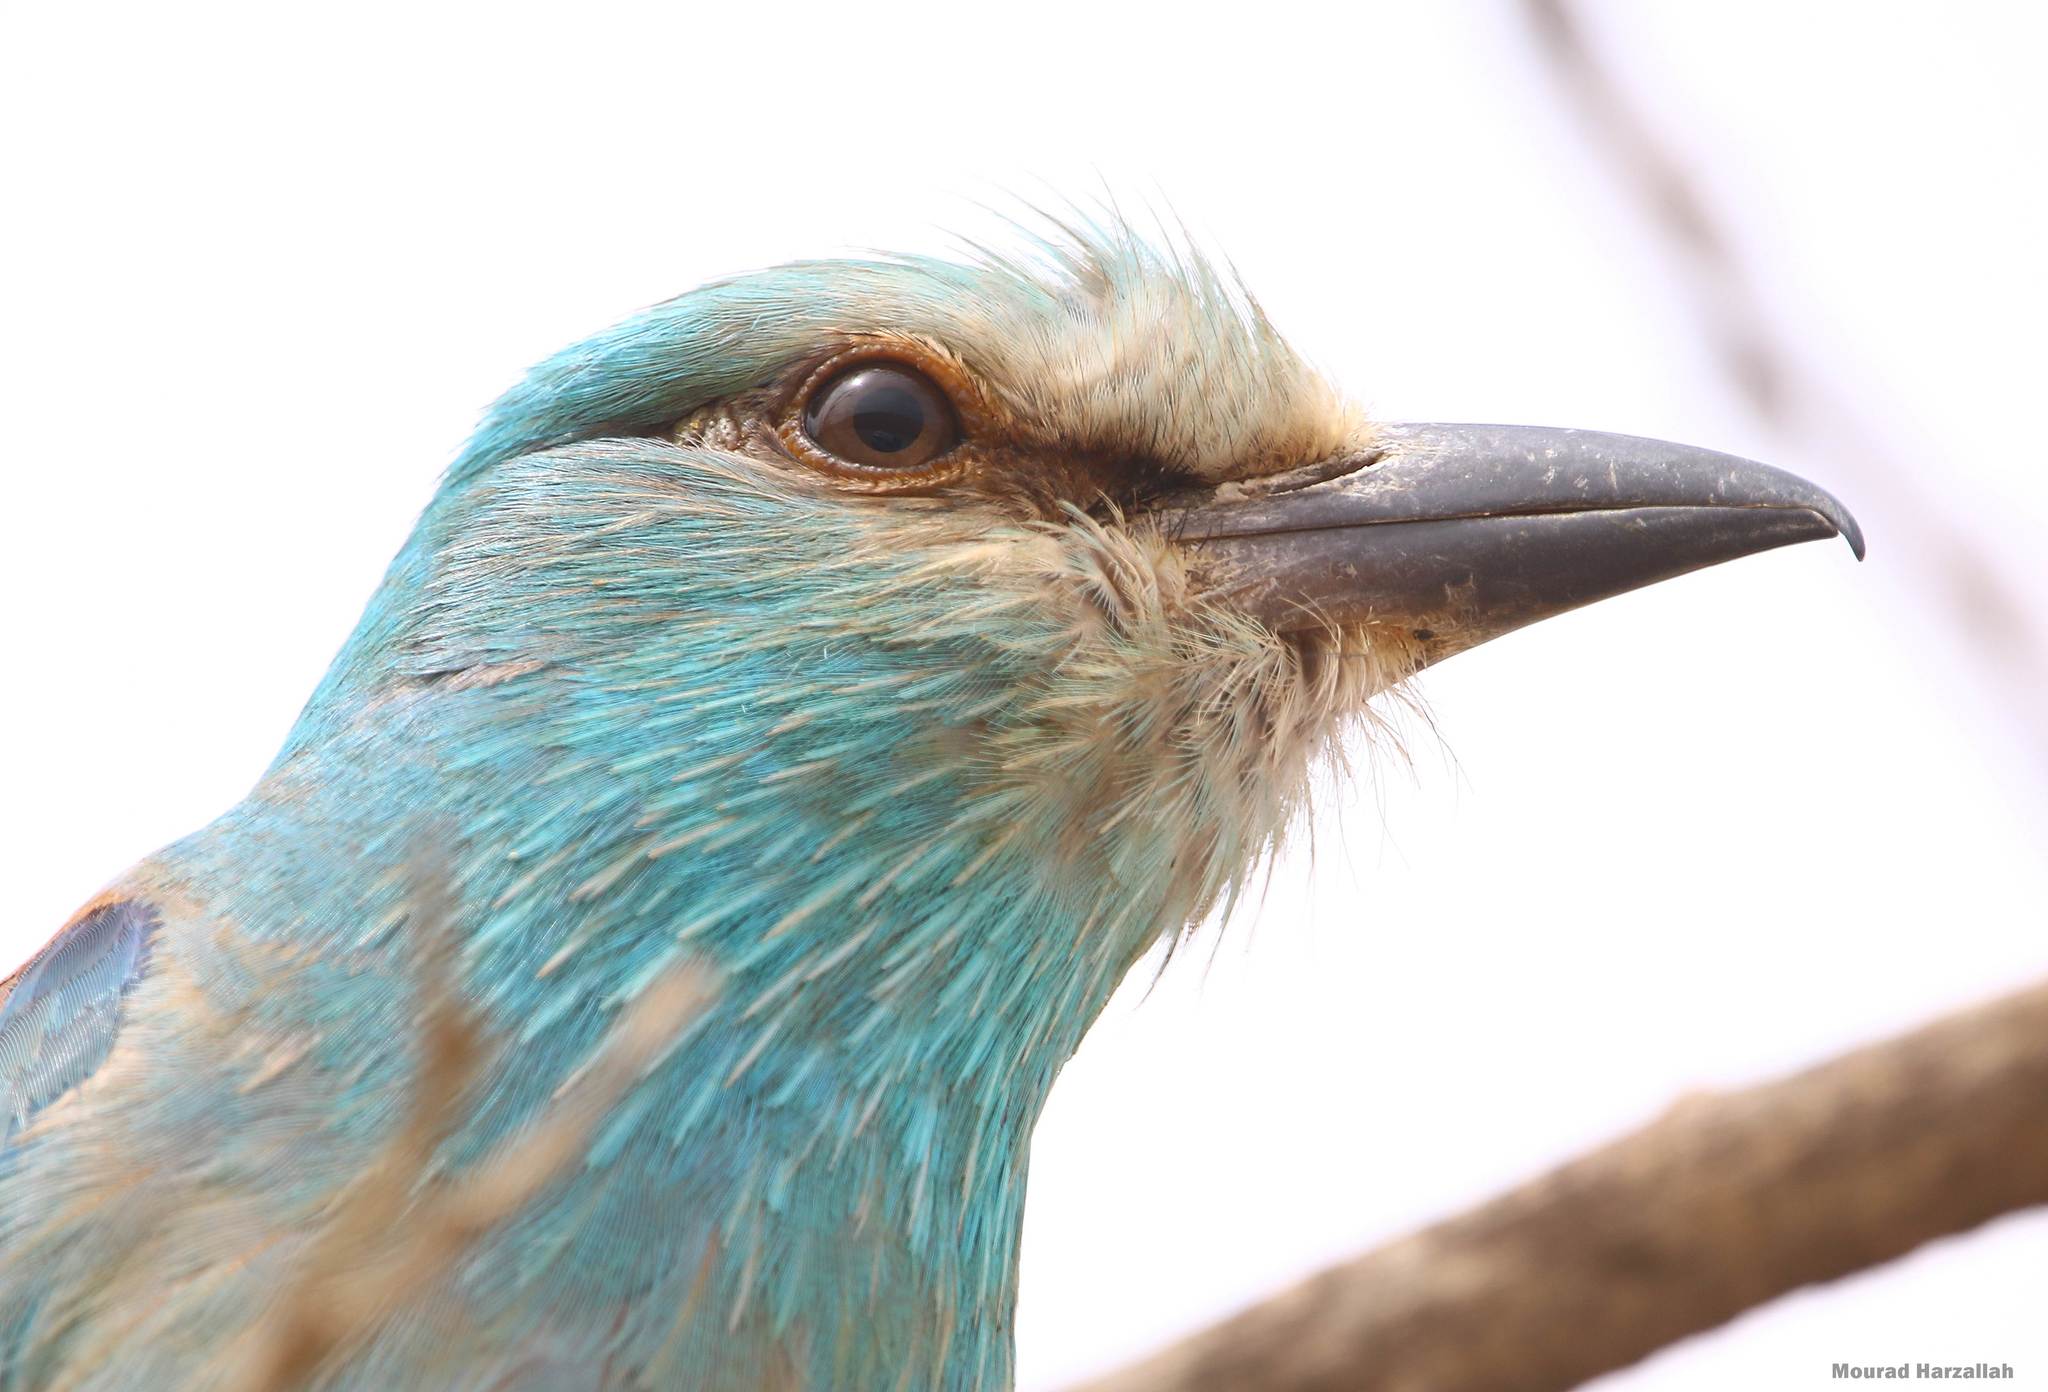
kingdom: Animalia
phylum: Chordata
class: Aves
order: Coraciiformes
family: Coraciidae
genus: Coracias
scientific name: Coracias garrulus
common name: European roller
